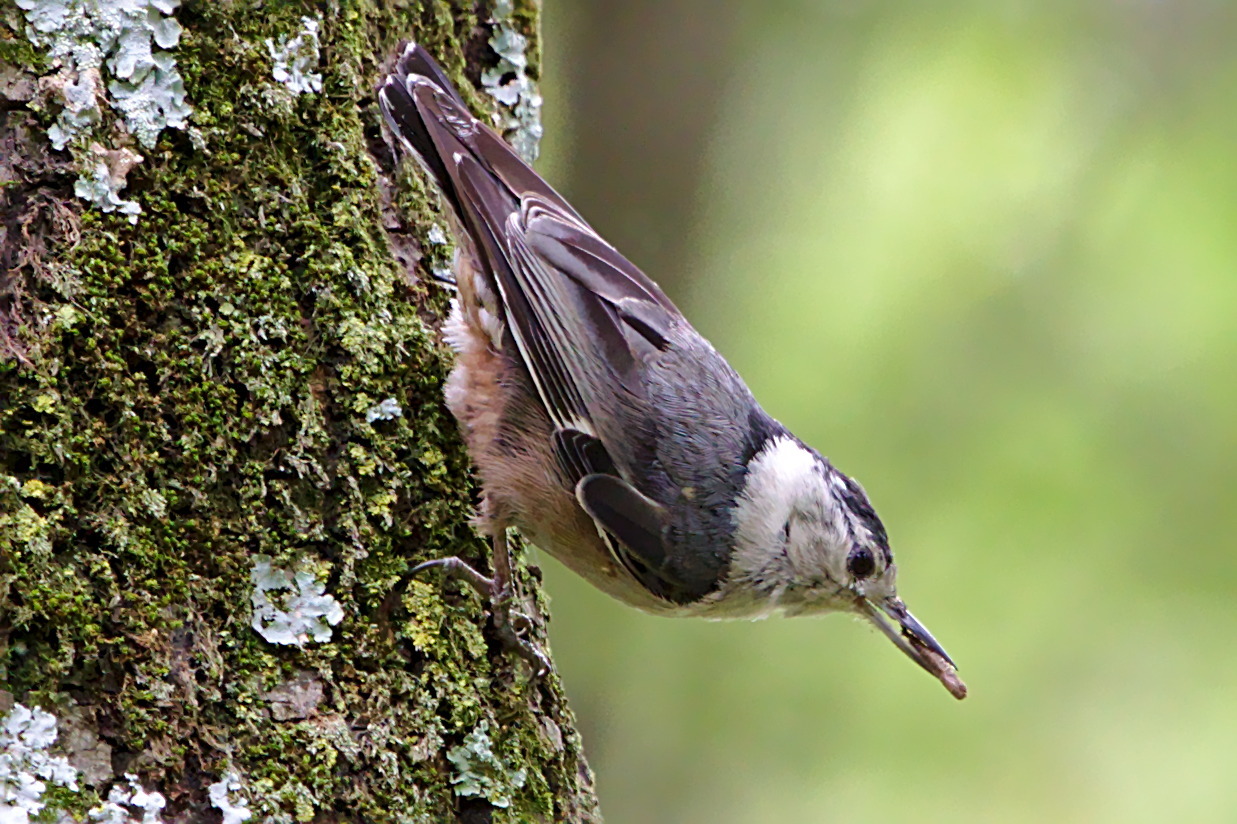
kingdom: Animalia
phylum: Chordata
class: Aves
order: Passeriformes
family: Sittidae
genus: Sitta
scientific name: Sitta carolinensis
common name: White-breasted nuthatch
